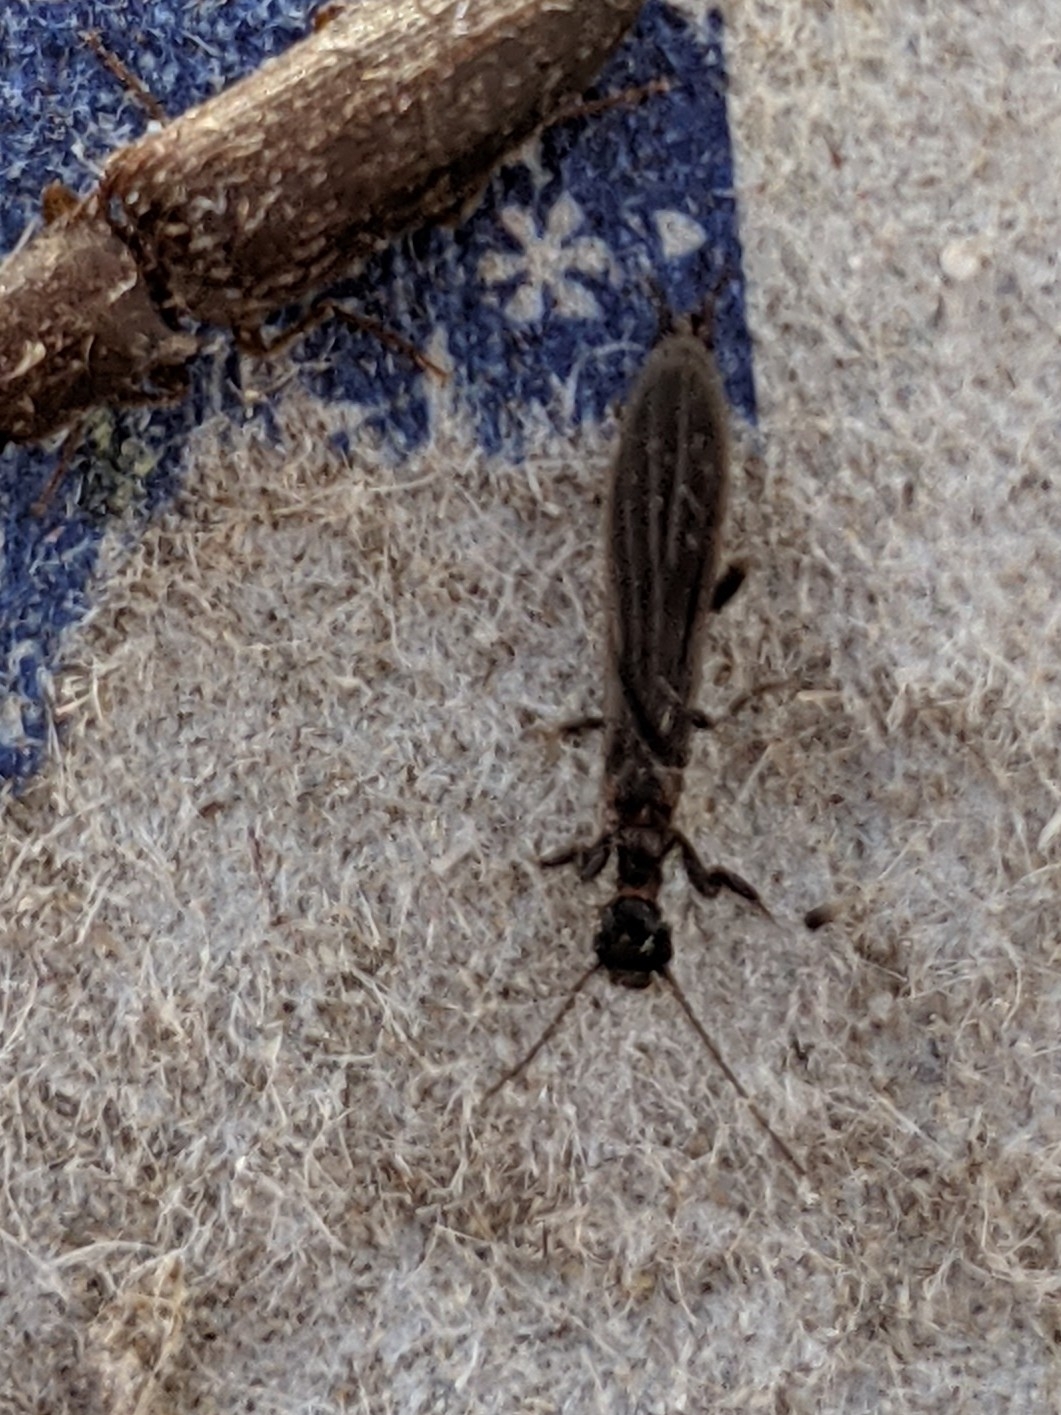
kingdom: Animalia
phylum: Arthropoda
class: Insecta
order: Embioptera
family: Oligotomidae
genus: Oligotoma
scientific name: Oligotoma nigra
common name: Black webspinner
